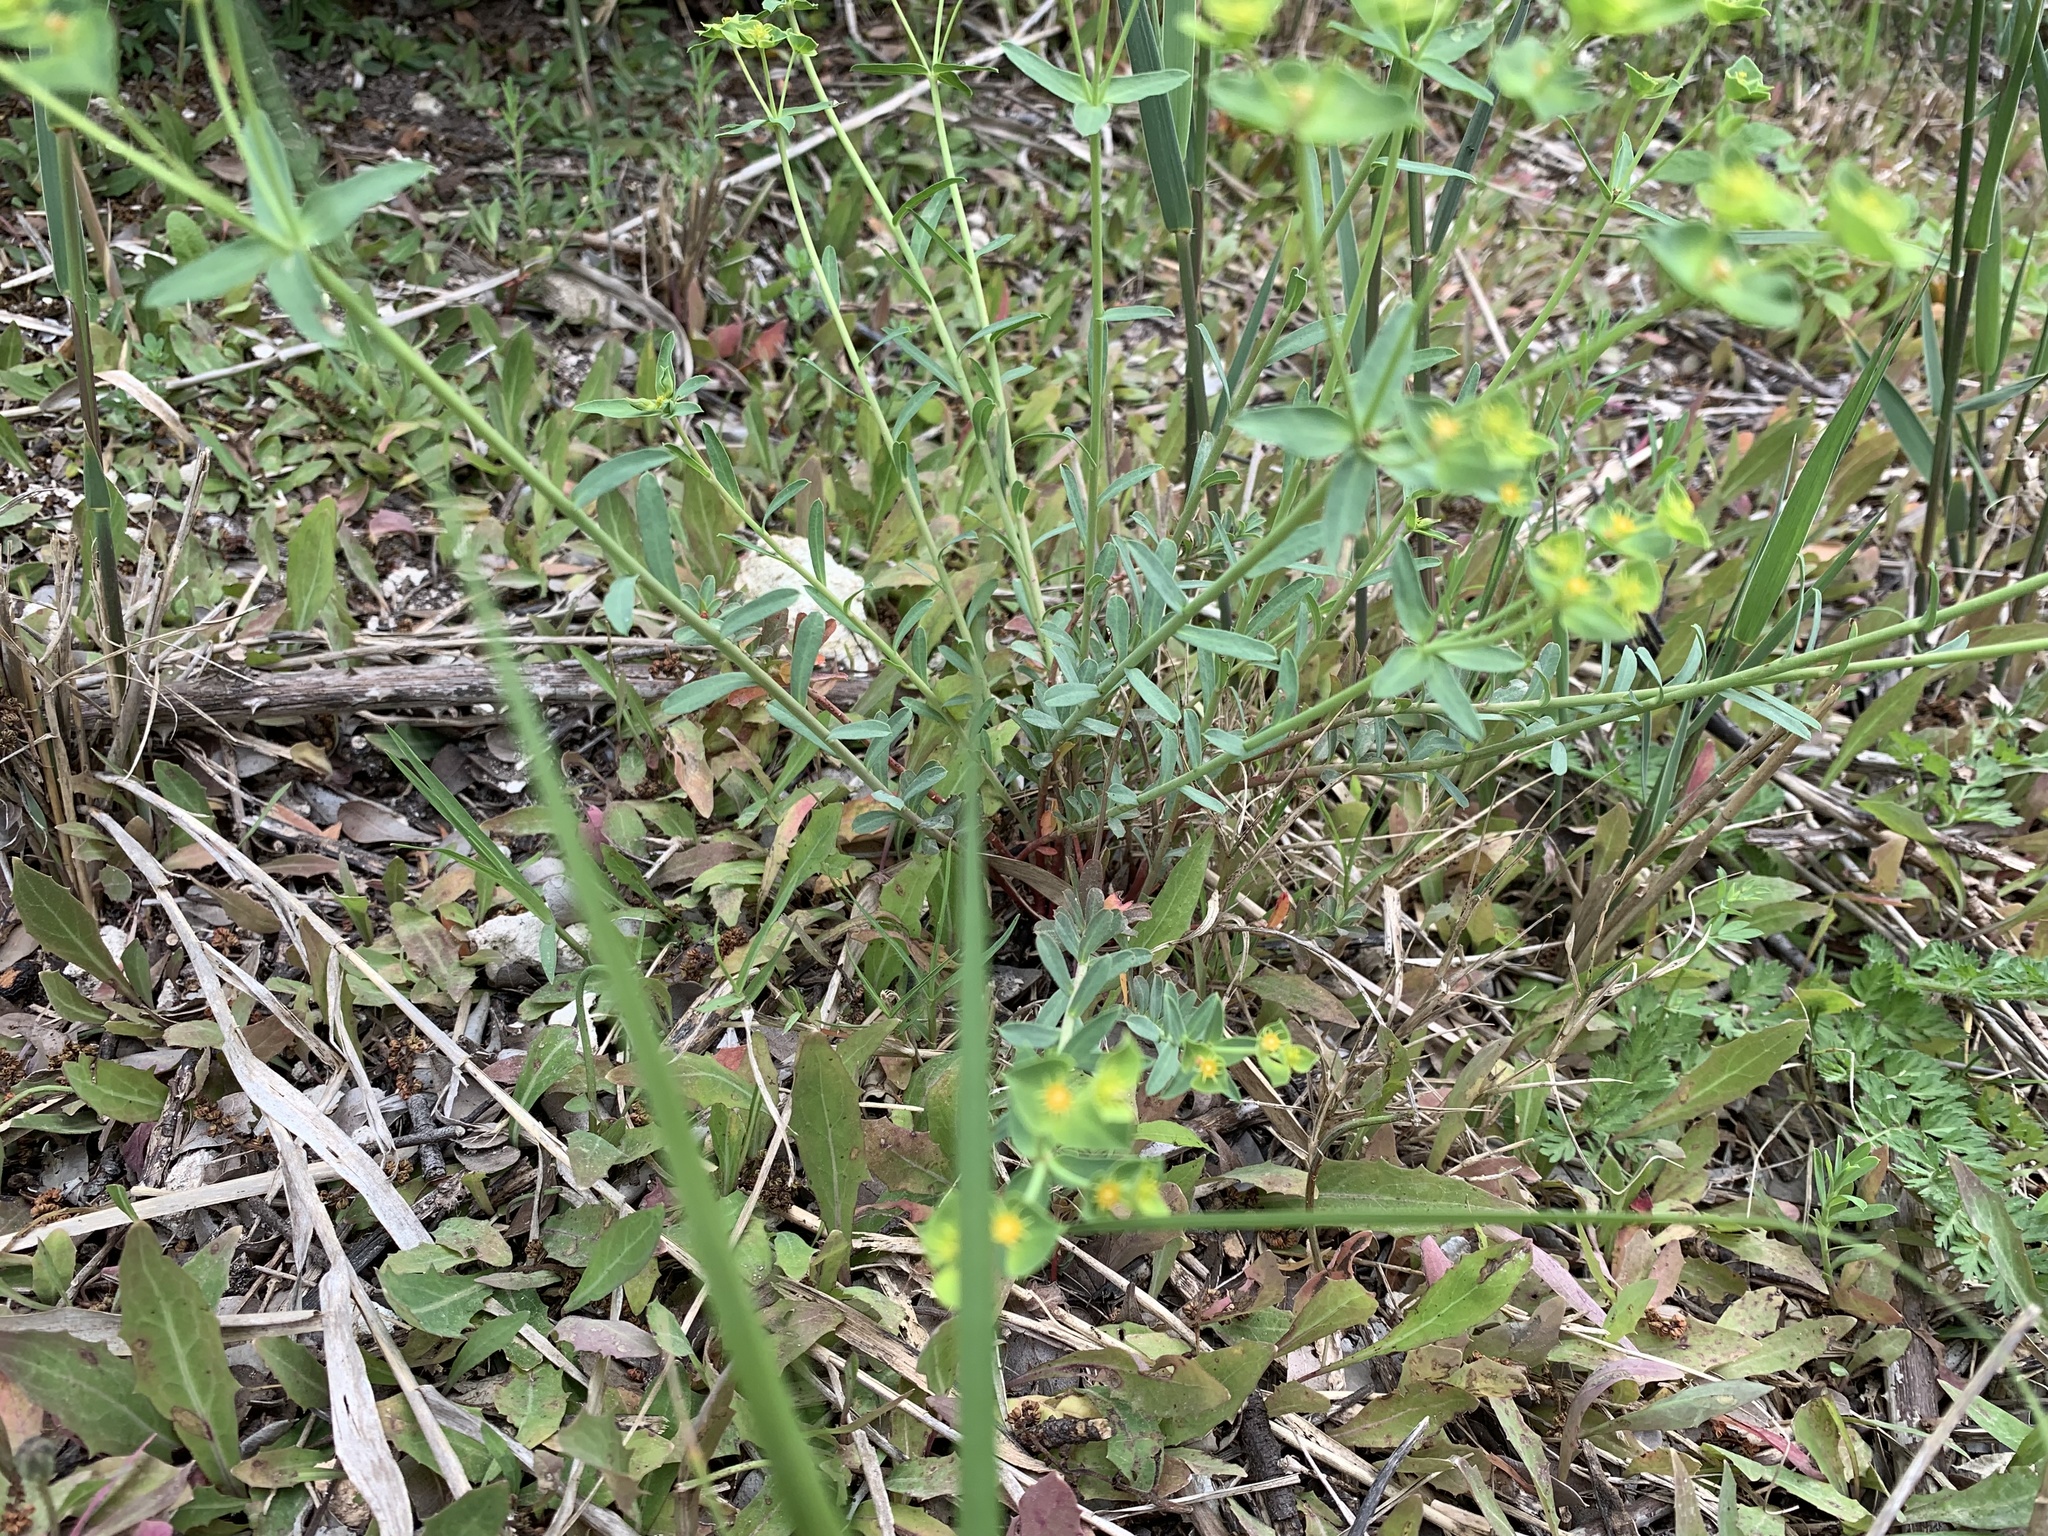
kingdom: Plantae
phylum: Tracheophyta
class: Magnoliopsida
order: Malpighiales
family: Euphorbiaceae
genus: Euphorbia
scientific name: Euphorbia terracina
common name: Geraldton carnation weed
